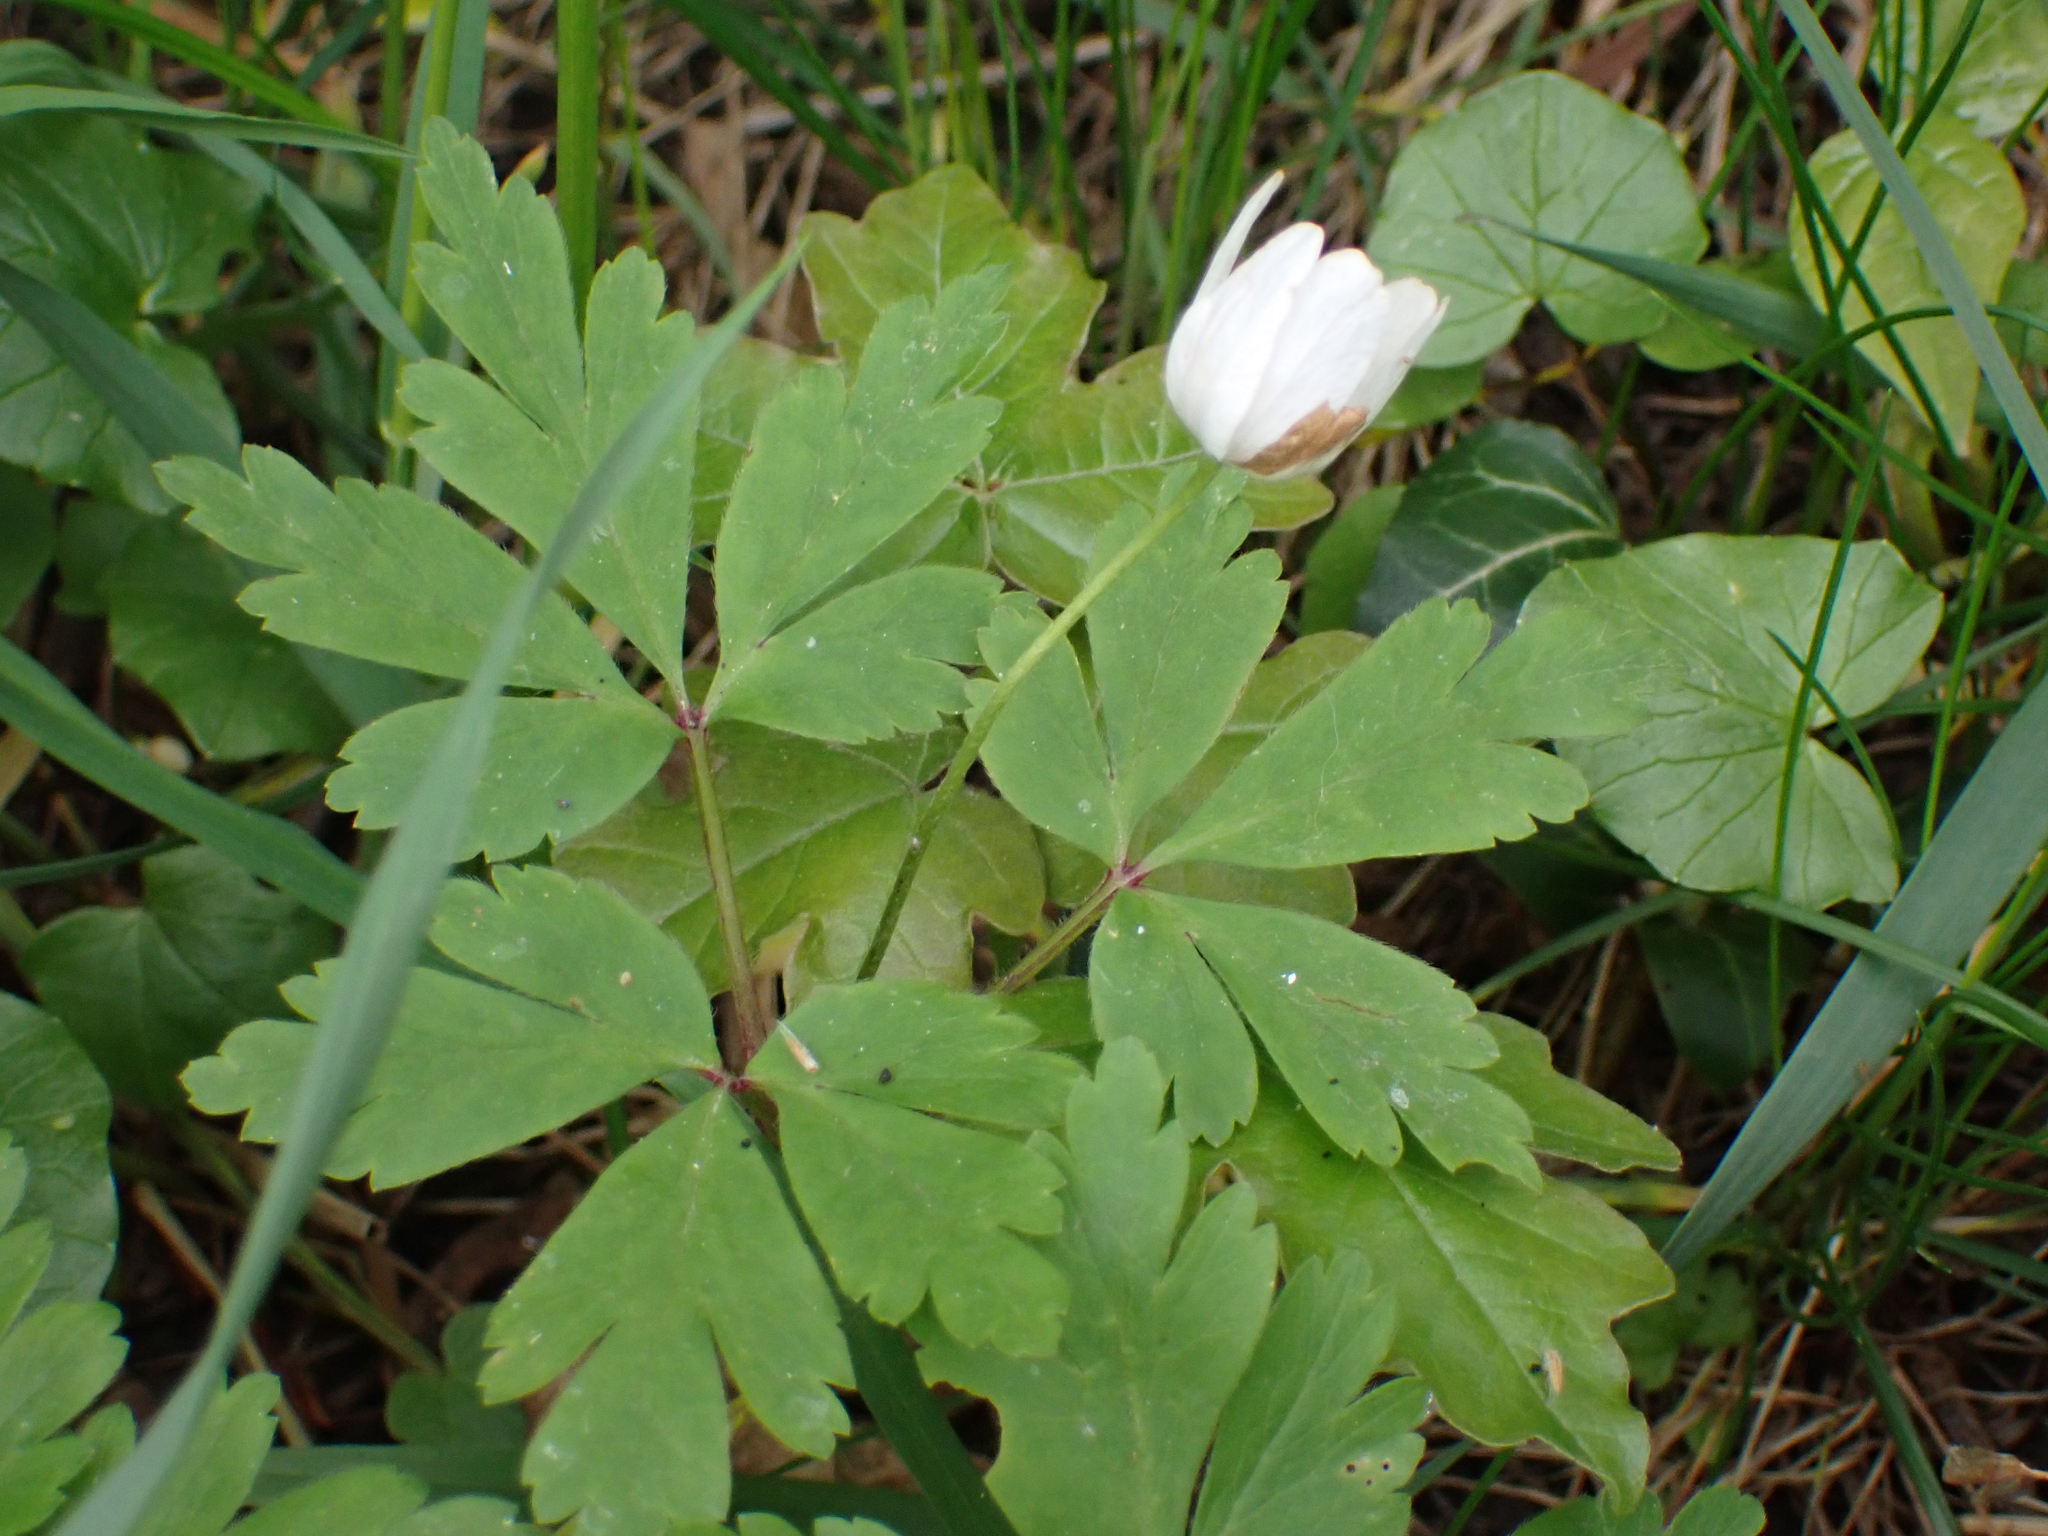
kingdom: Plantae
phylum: Tracheophyta
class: Magnoliopsida
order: Ranunculales
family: Ranunculaceae
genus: Anemone
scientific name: Anemone nemorosa
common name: Wood anemone
